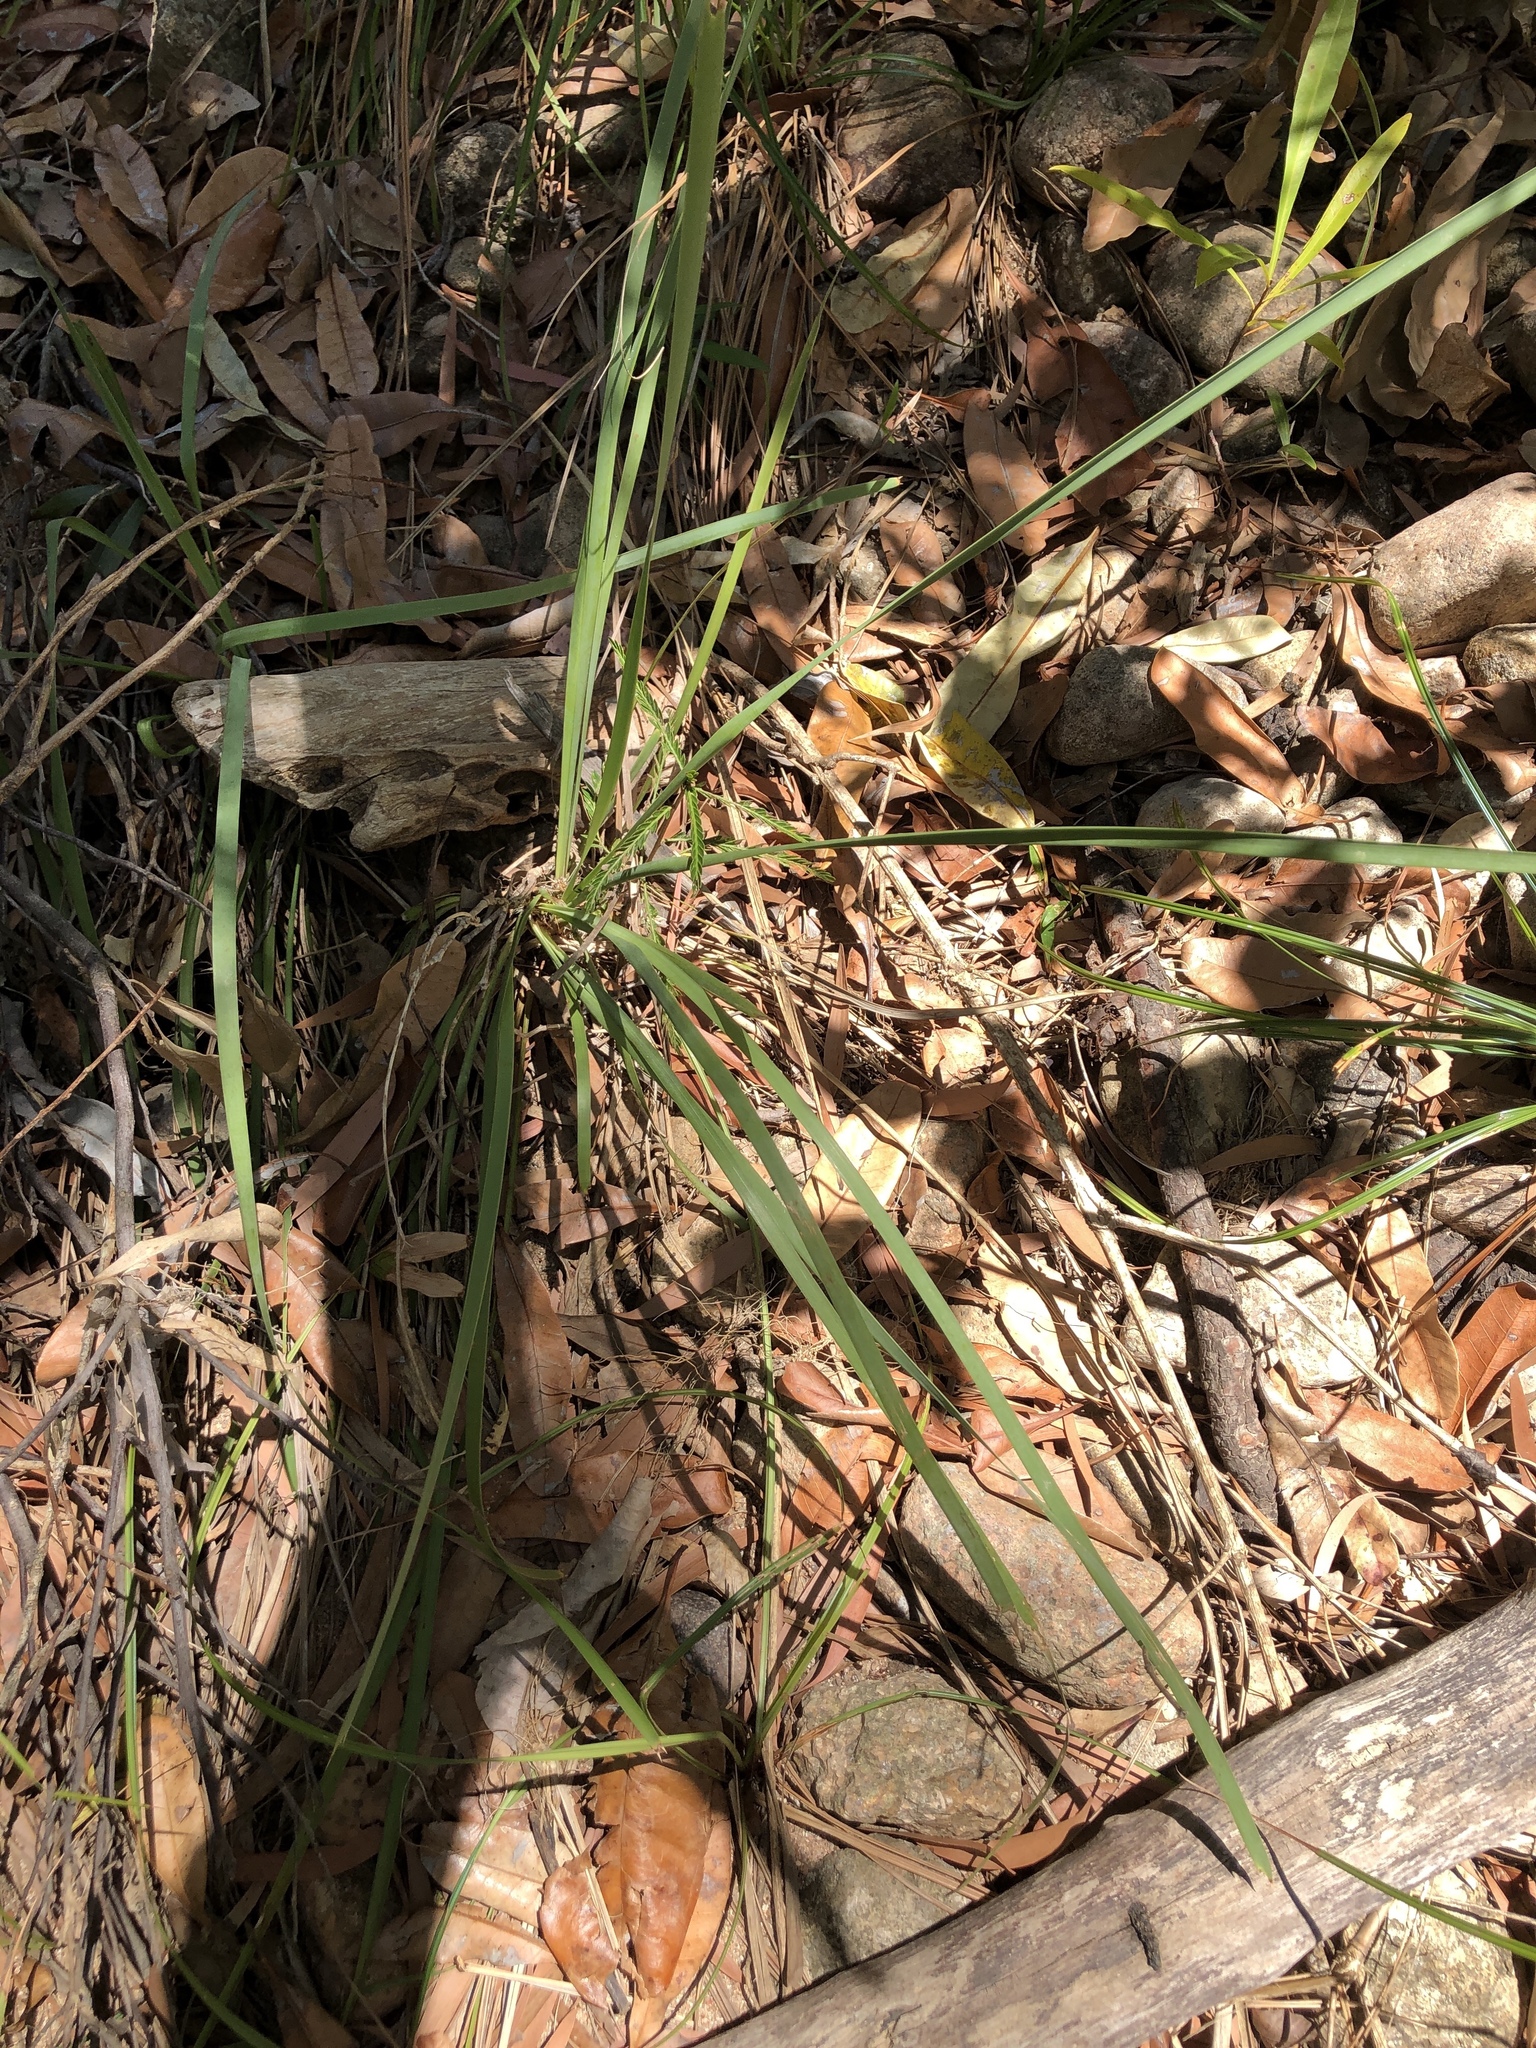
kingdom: Plantae
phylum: Tracheophyta
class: Liliopsida
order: Asparagales
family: Asparagaceae
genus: Lomandra
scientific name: Lomandra longifolia
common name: Longleaf mat-rush
